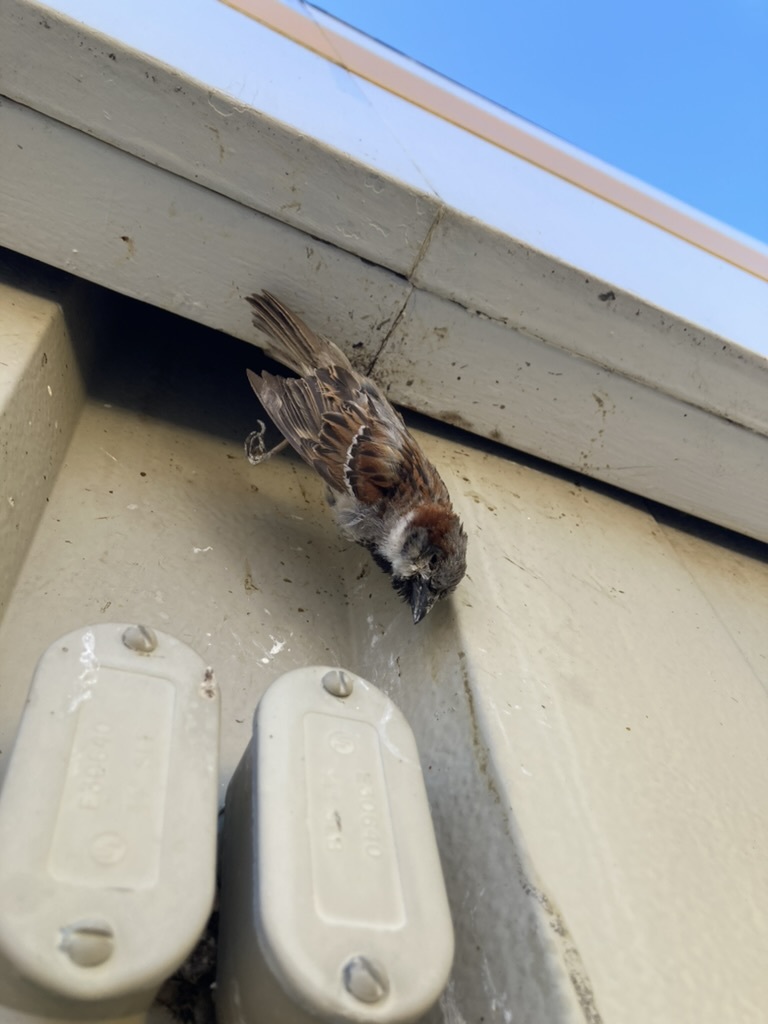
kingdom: Animalia
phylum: Chordata
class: Aves
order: Passeriformes
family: Passeridae
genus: Passer
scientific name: Passer domesticus
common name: House sparrow
